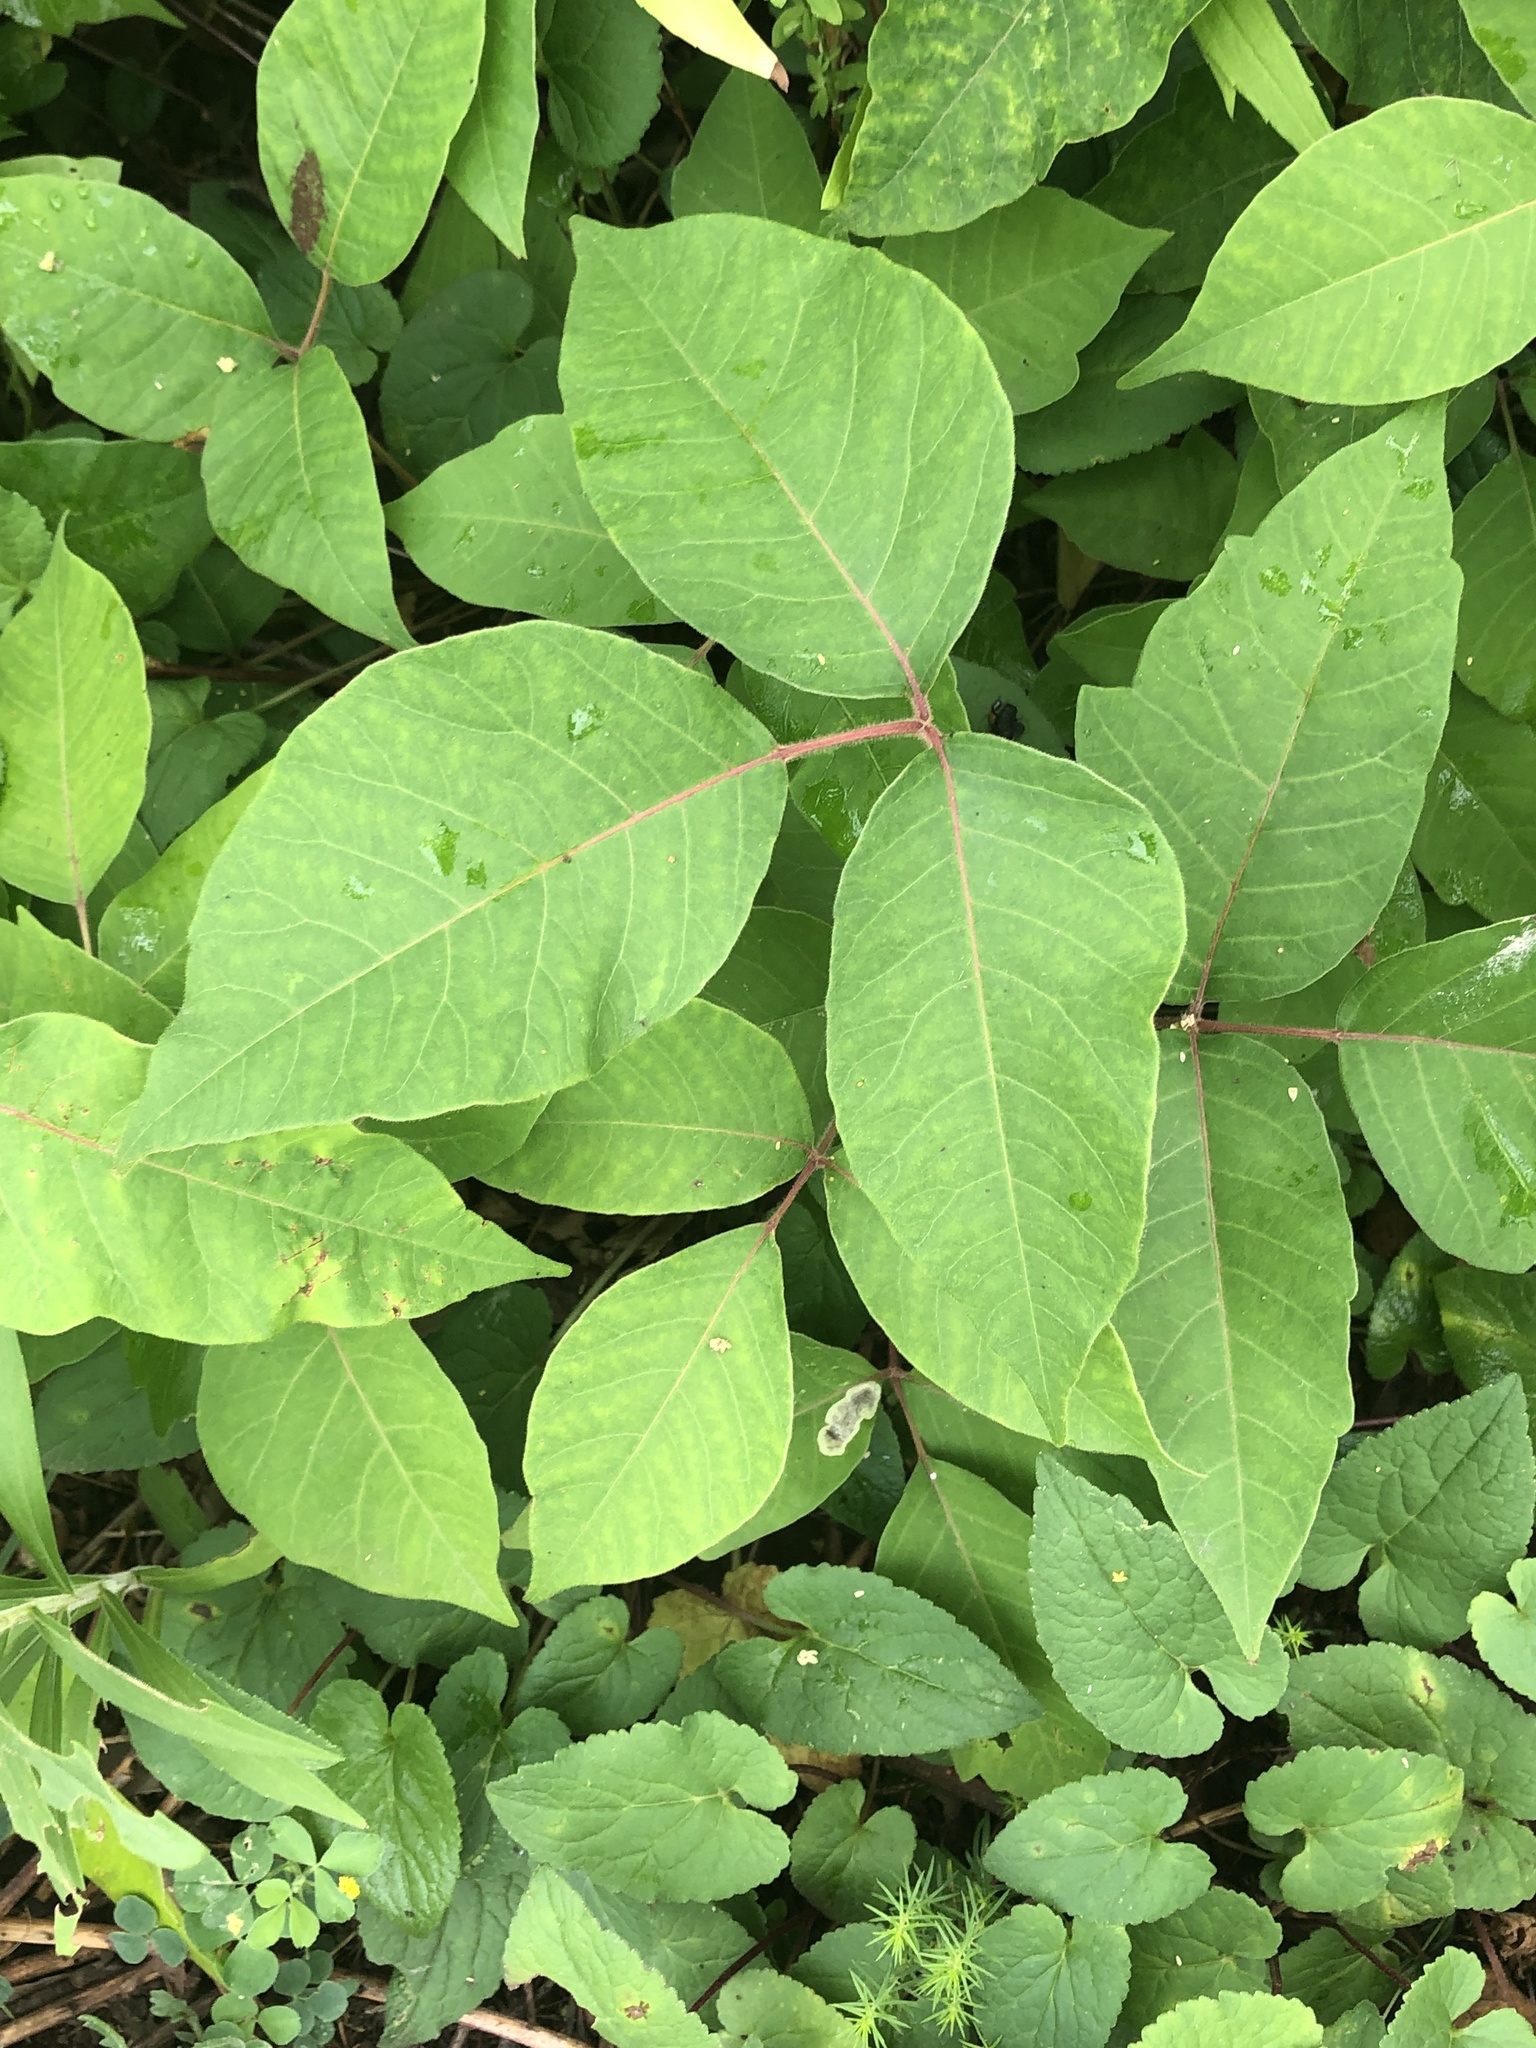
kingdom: Plantae
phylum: Tracheophyta
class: Magnoliopsida
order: Sapindales
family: Anacardiaceae
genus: Toxicodendron
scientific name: Toxicodendron radicans
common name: Poison ivy
